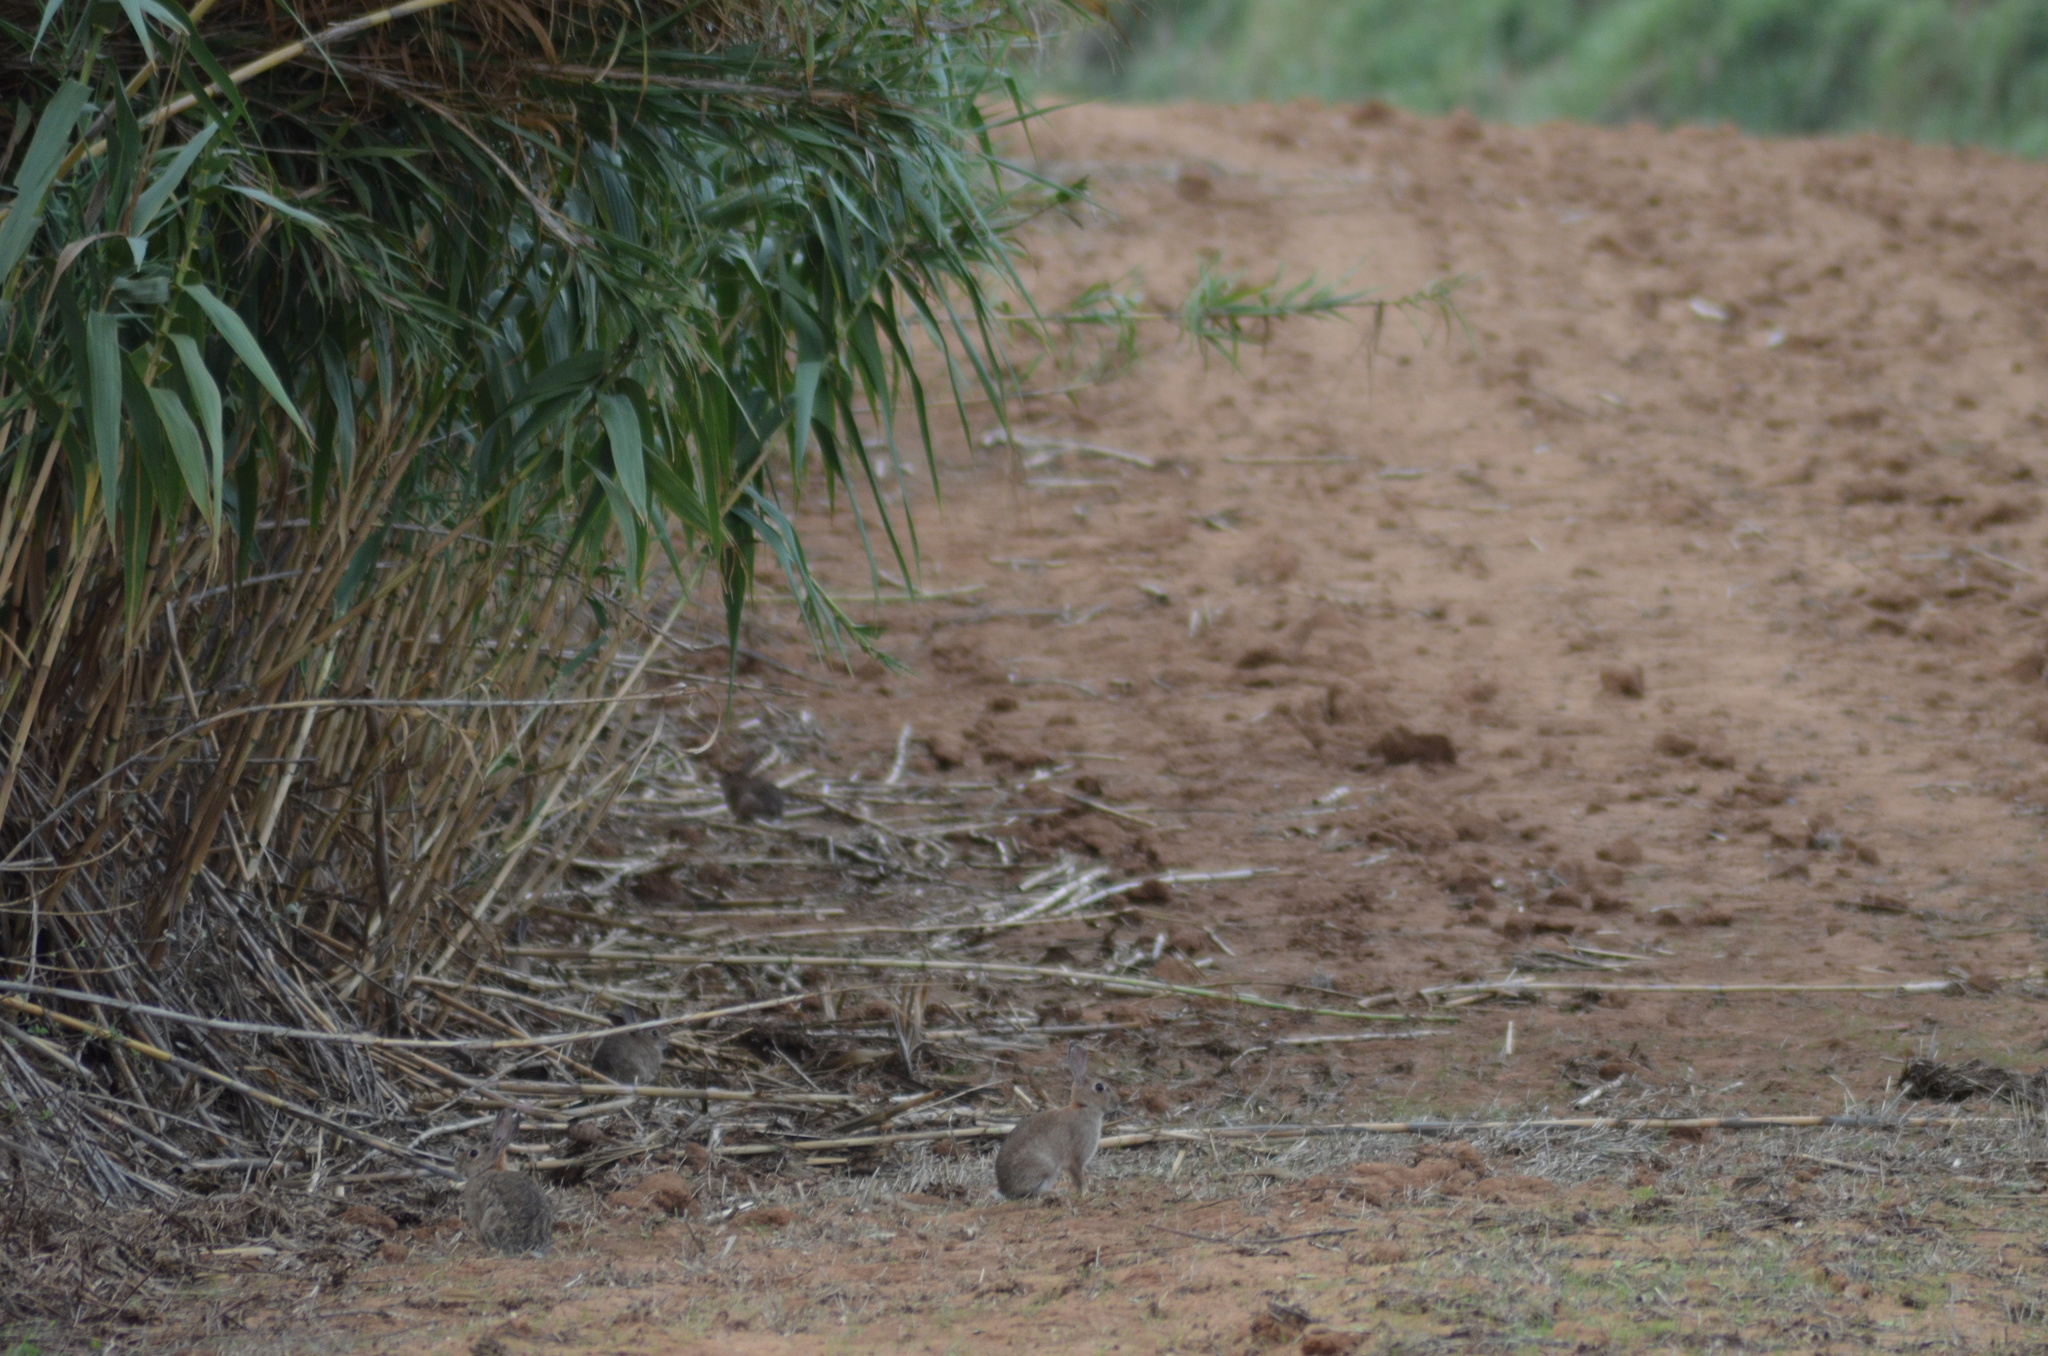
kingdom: Animalia
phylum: Chordata
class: Mammalia
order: Lagomorpha
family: Leporidae
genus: Oryctolagus
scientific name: Oryctolagus cuniculus
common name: European rabbit
